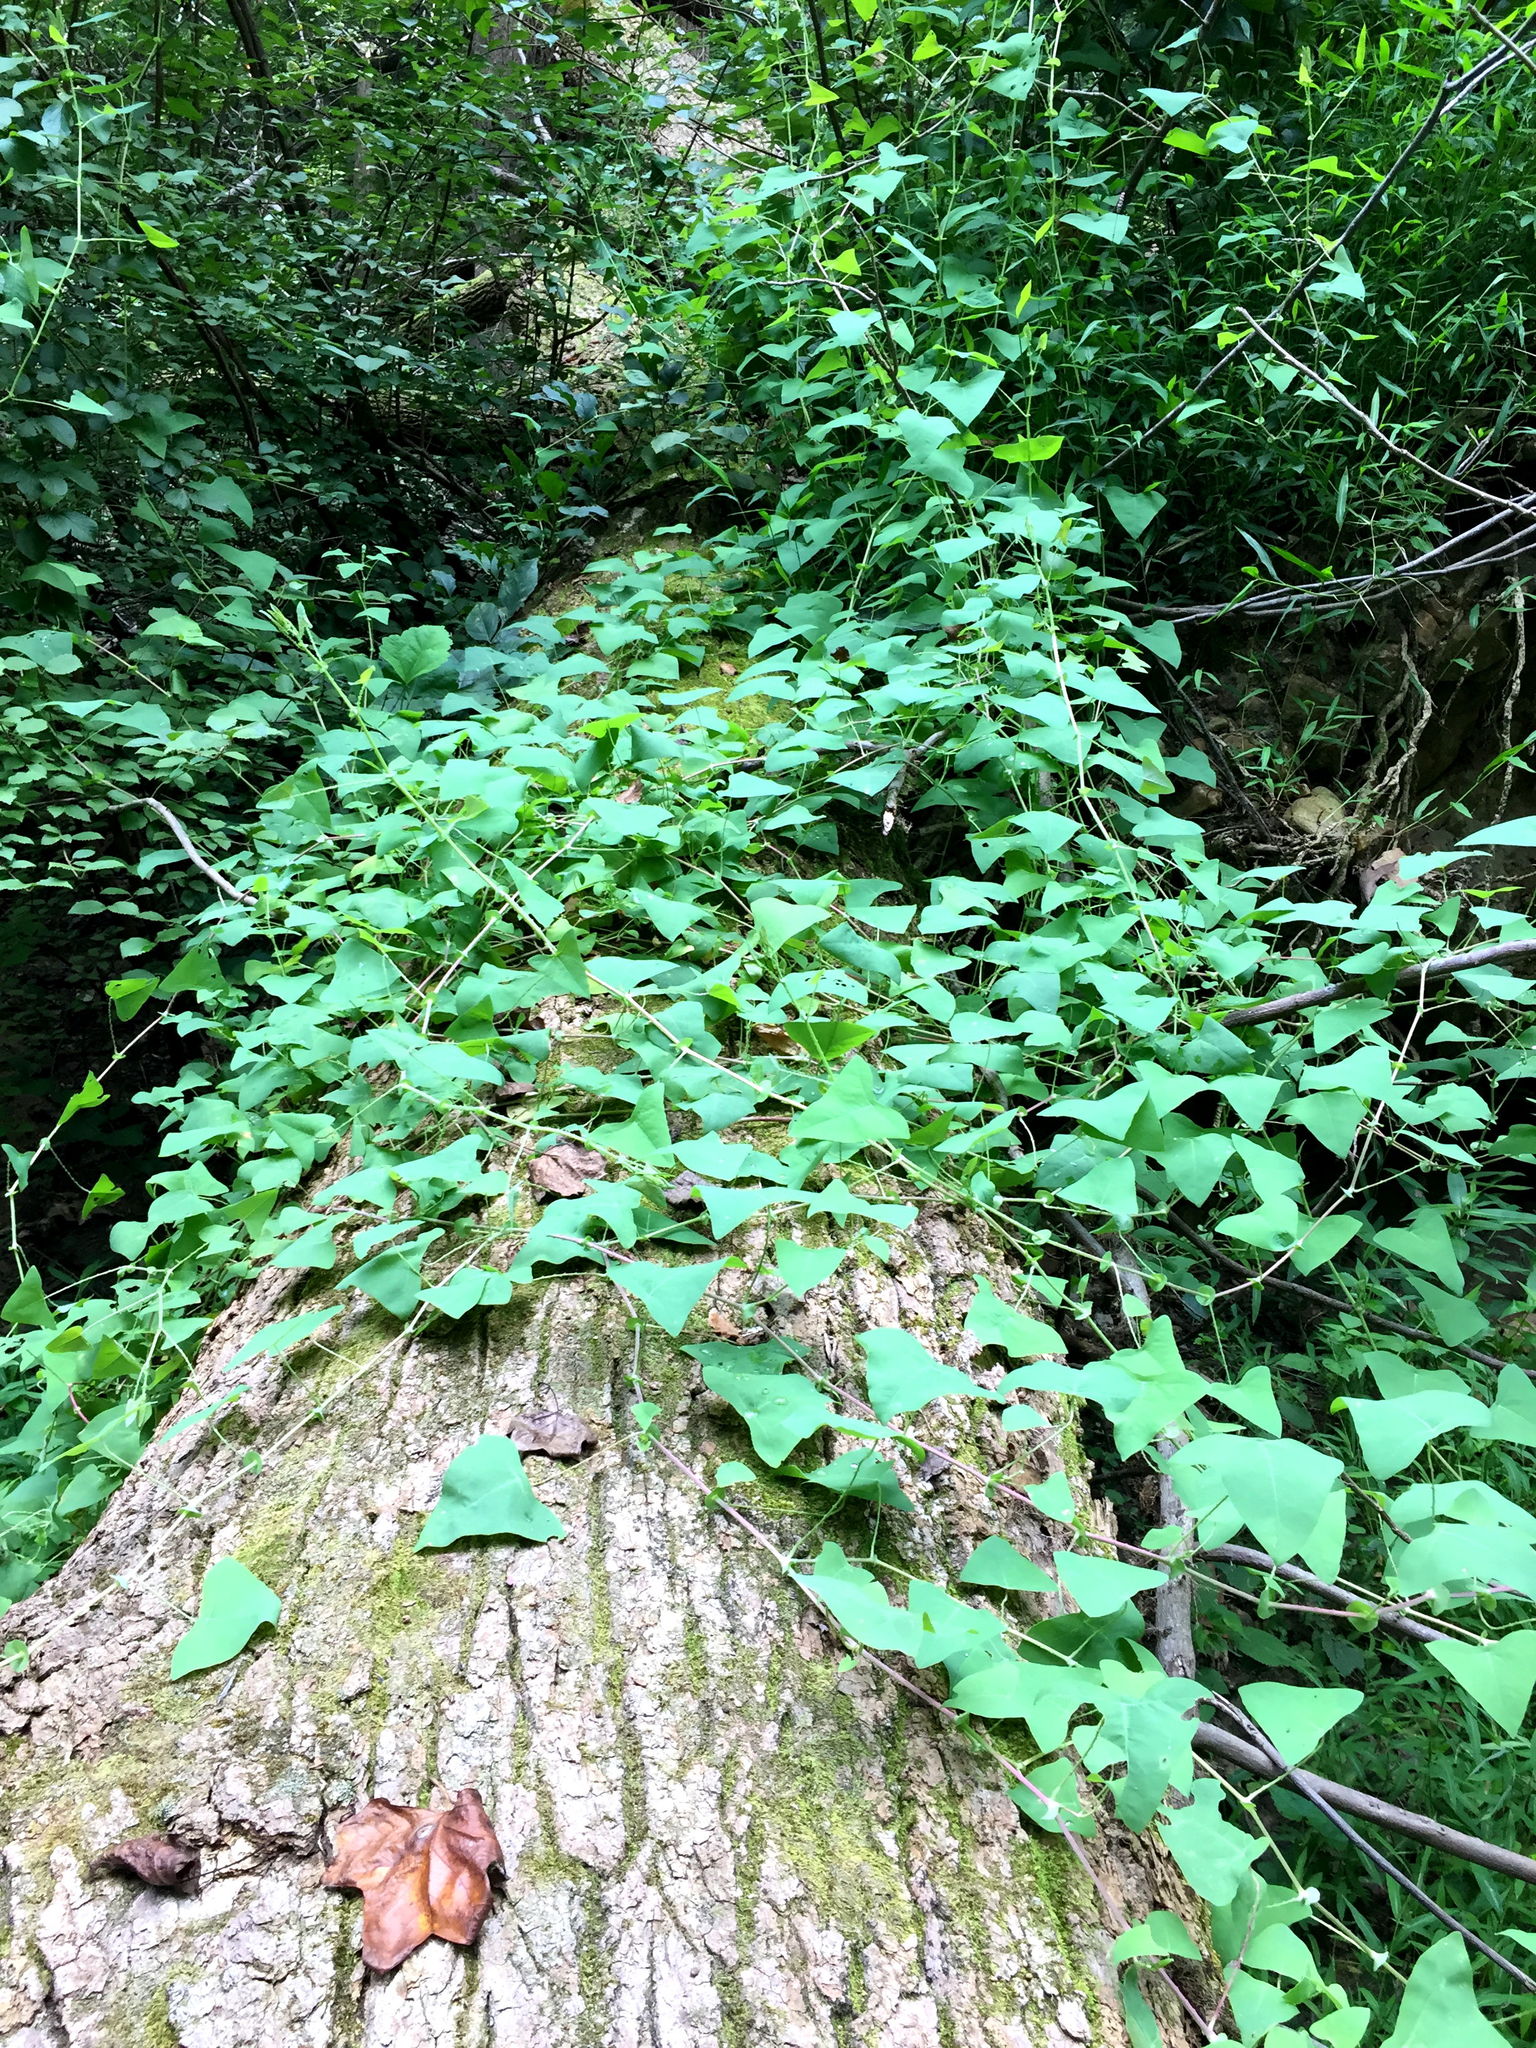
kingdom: Plantae
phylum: Tracheophyta
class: Magnoliopsida
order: Caryophyllales
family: Polygonaceae
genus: Persicaria
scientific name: Persicaria perfoliata
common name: Asiatic tearthumb
